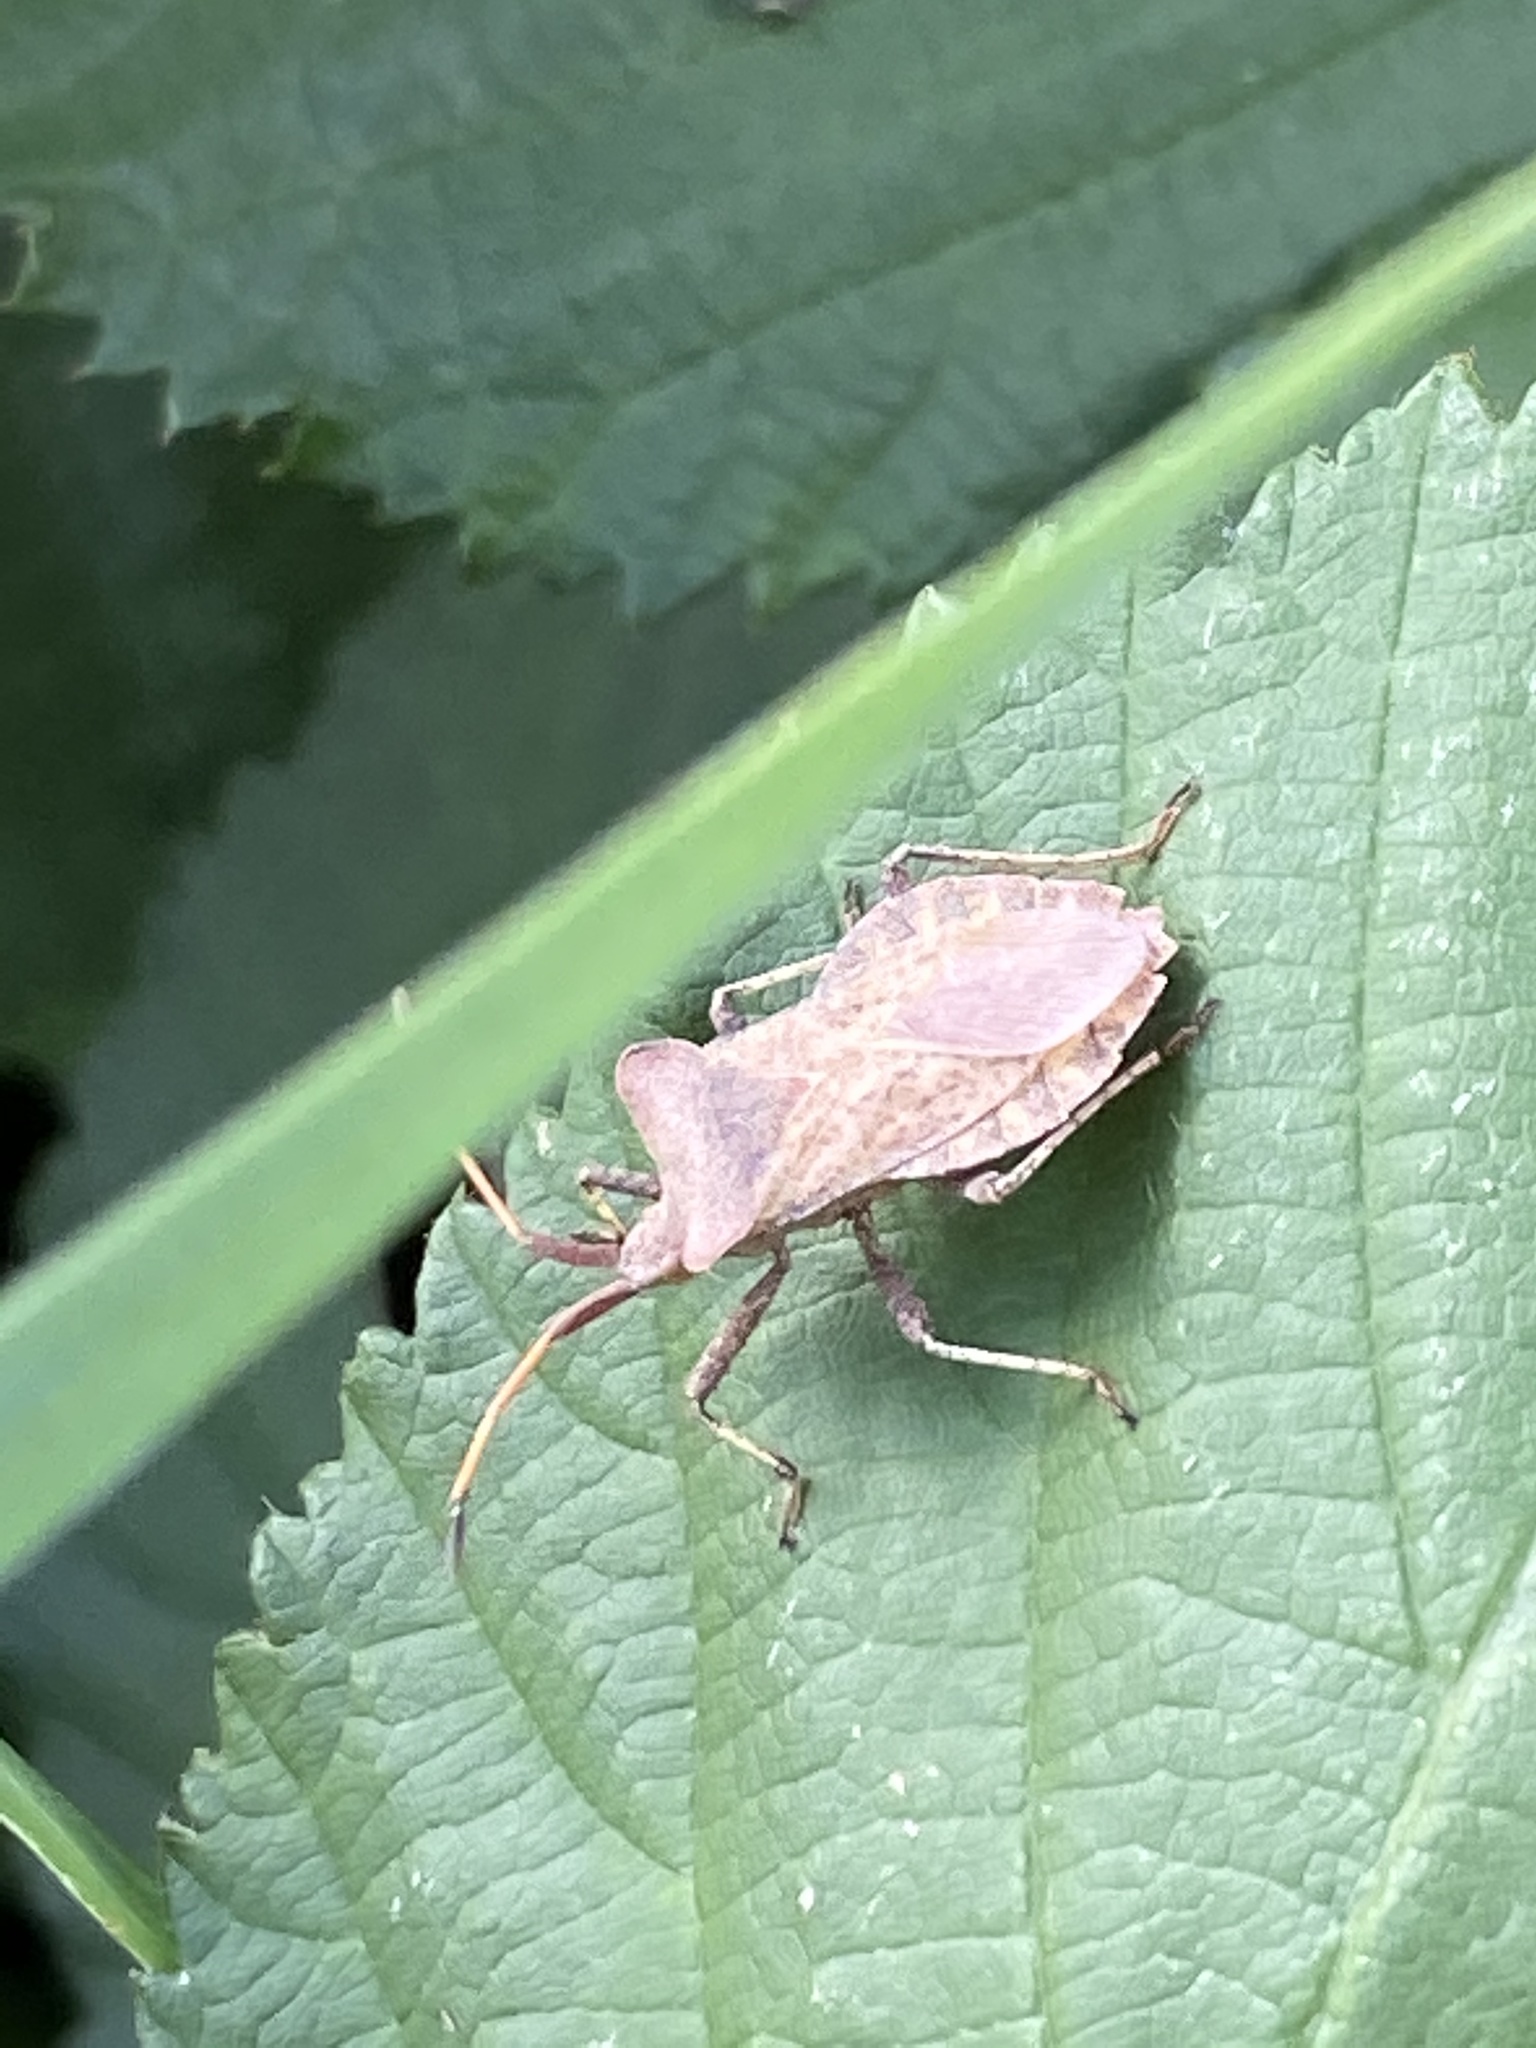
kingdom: Animalia
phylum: Arthropoda
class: Insecta
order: Hemiptera
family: Coreidae
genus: Coreus
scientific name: Coreus marginatus
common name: Dock bug
